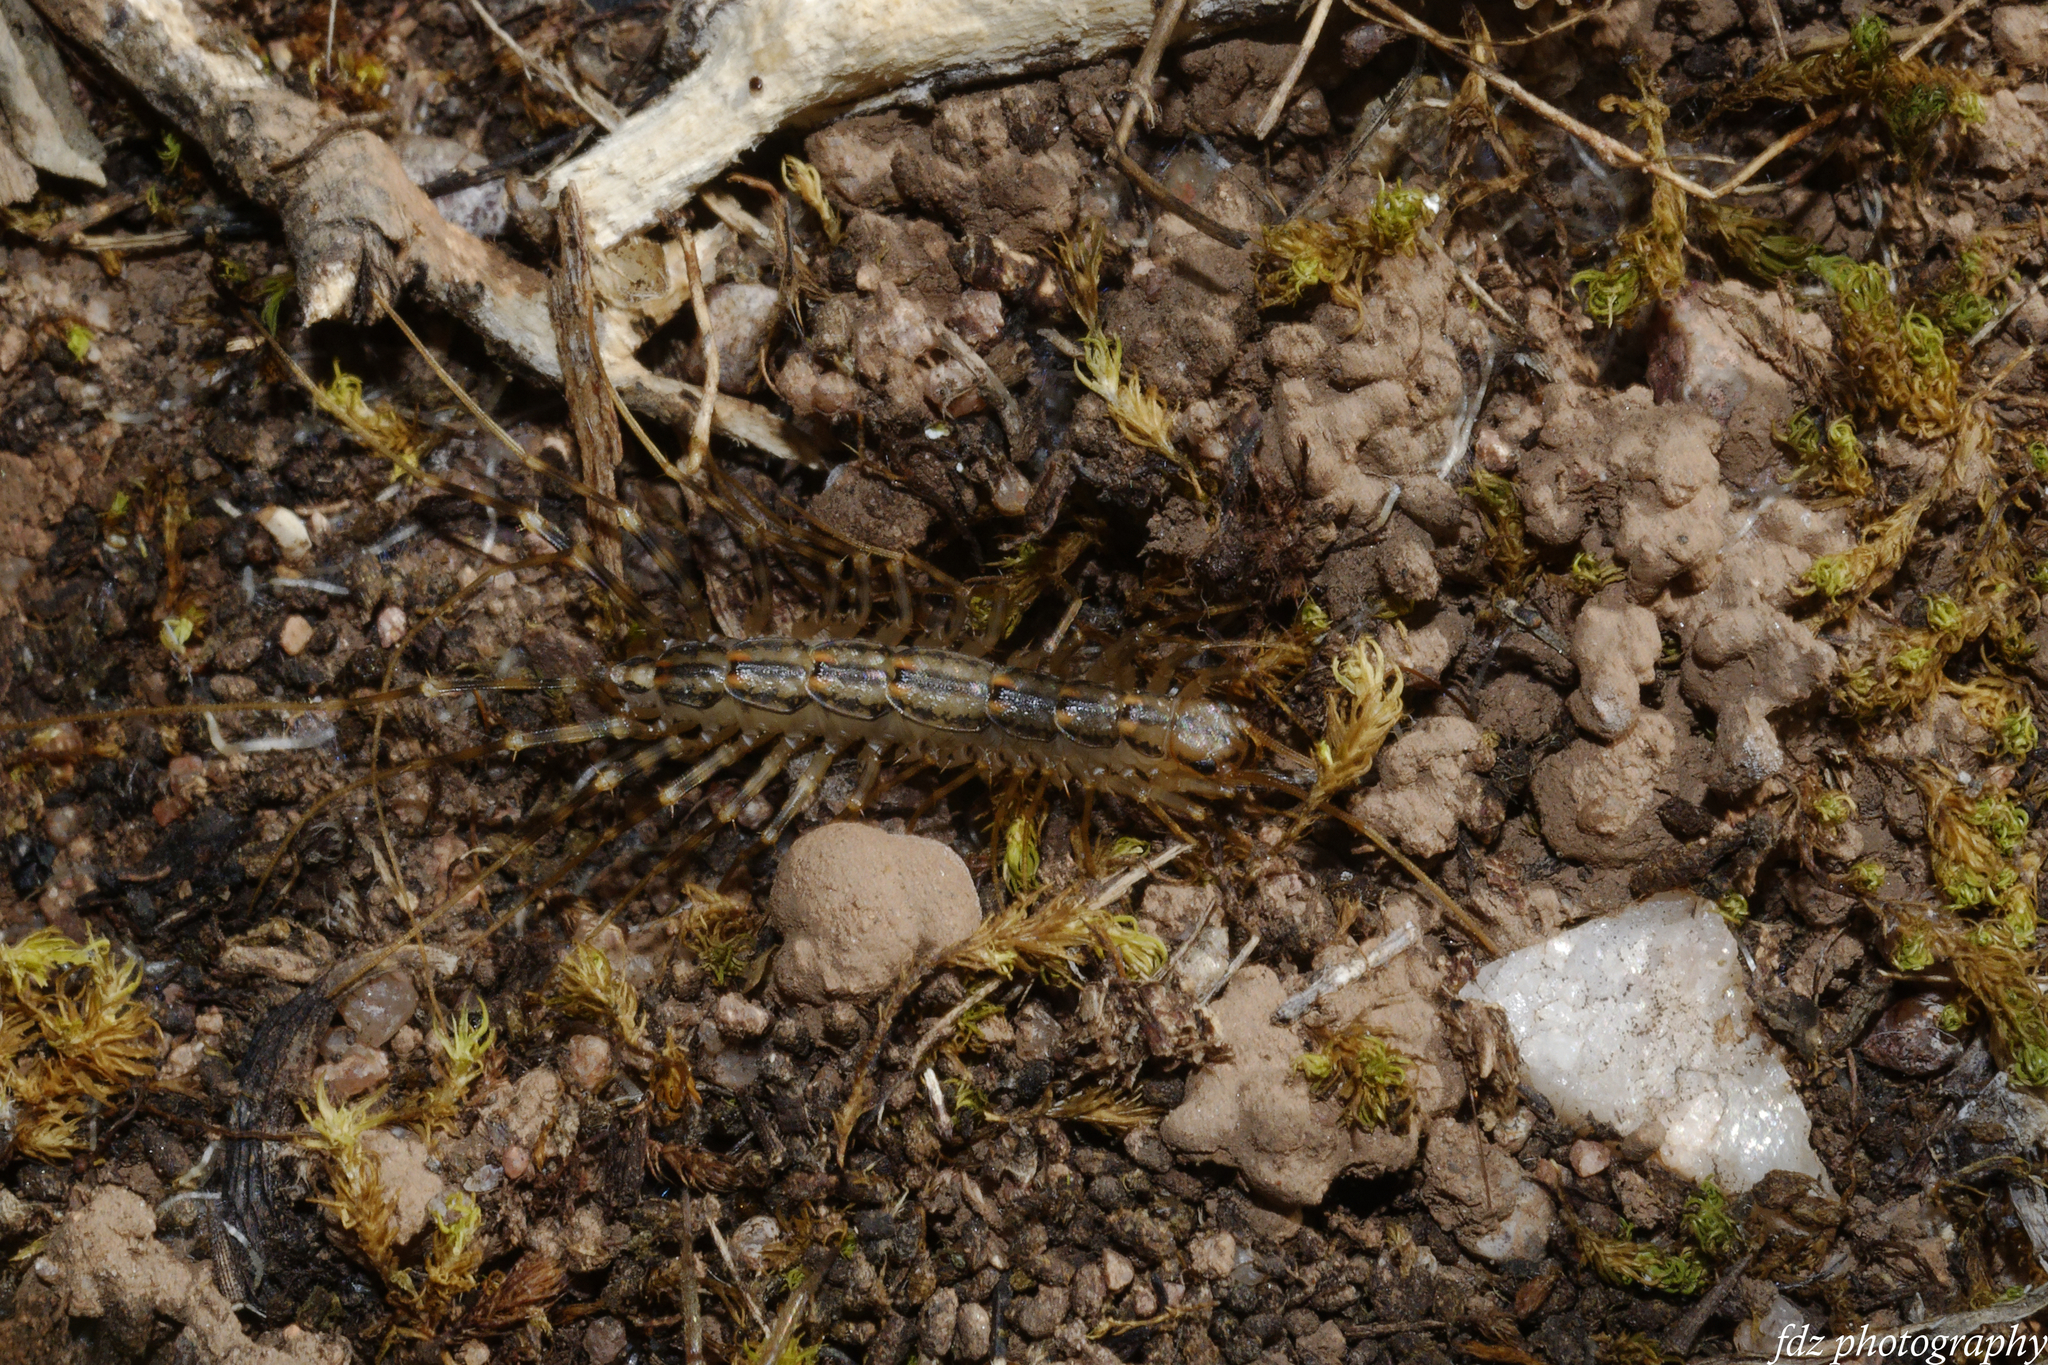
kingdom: Animalia
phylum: Arthropoda
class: Chilopoda
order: Scutigeromorpha
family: Scutigeridae
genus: Scutigera
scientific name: Scutigera coleoptrata
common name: House centipede
